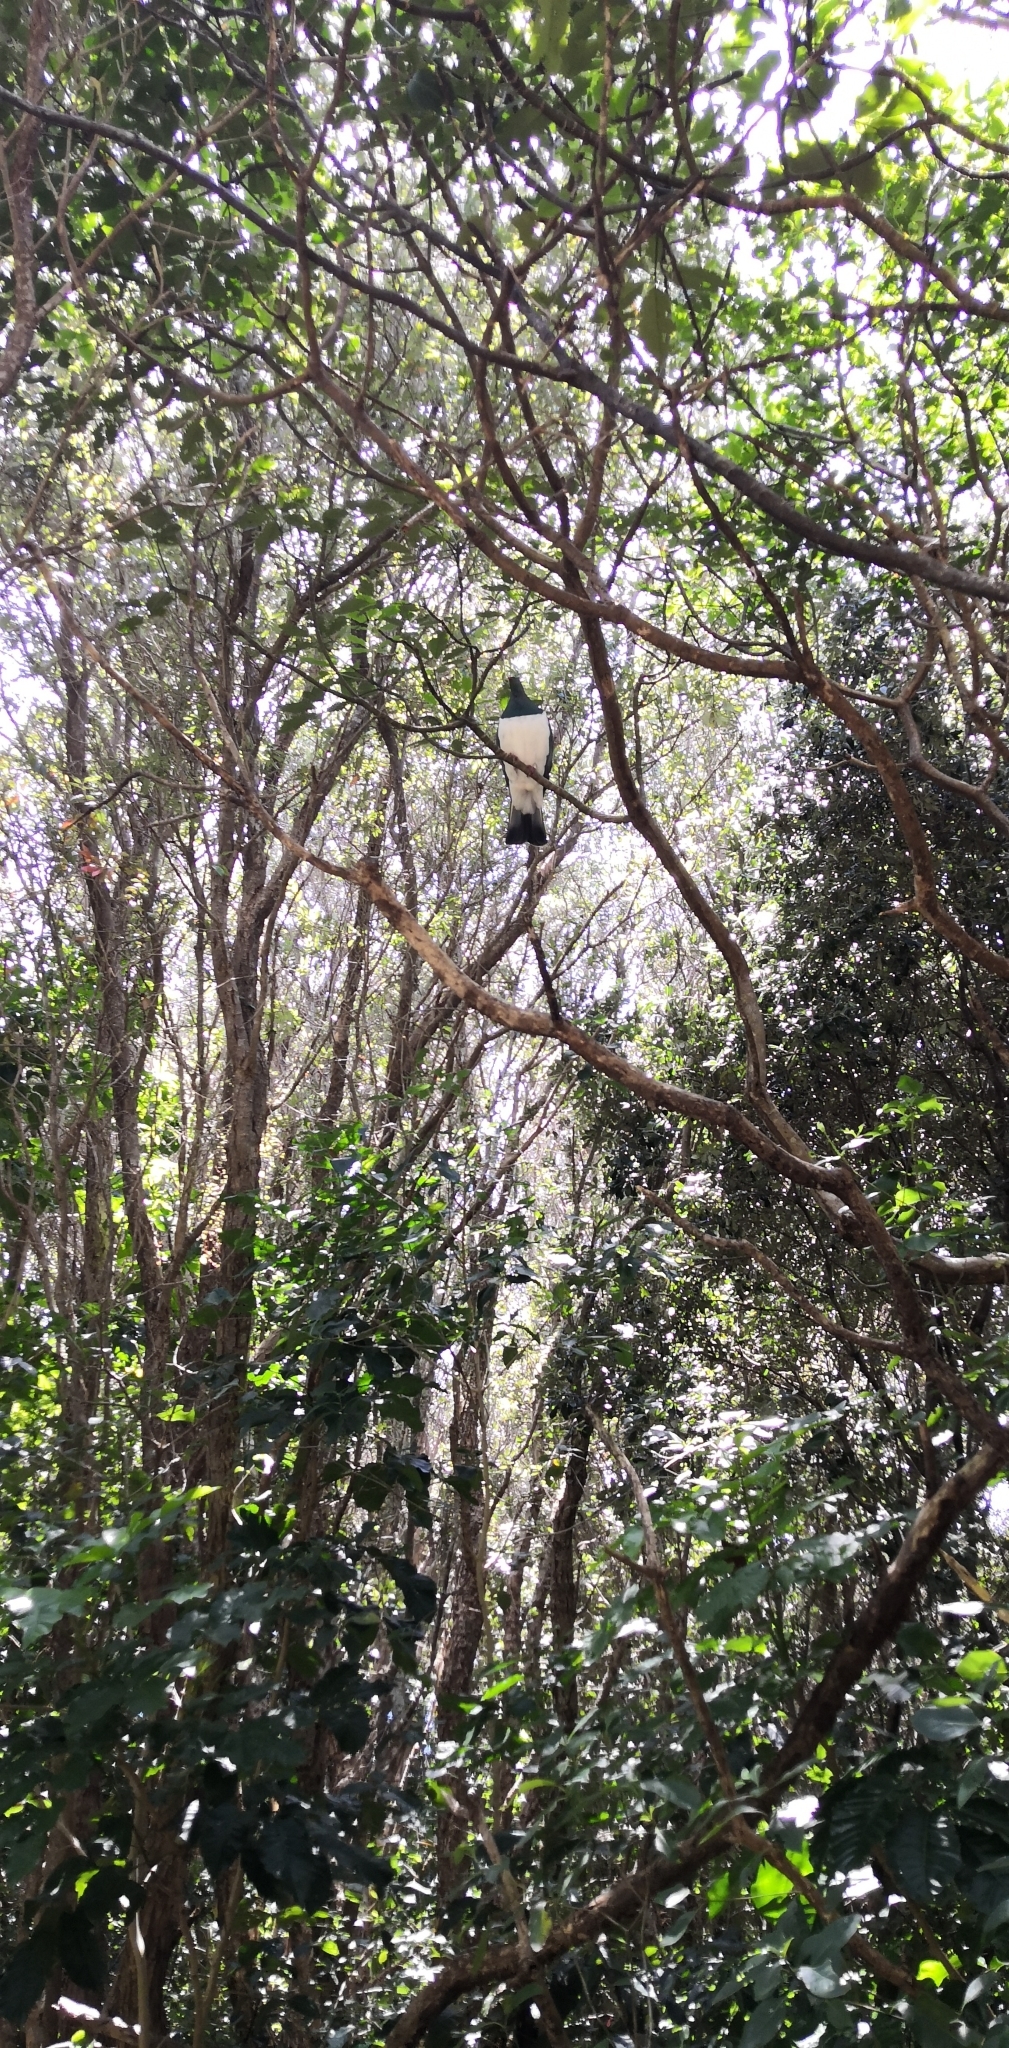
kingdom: Animalia
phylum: Chordata
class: Aves
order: Columbiformes
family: Columbidae
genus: Hemiphaga
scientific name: Hemiphaga novaeseelandiae
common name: New zealand pigeon
